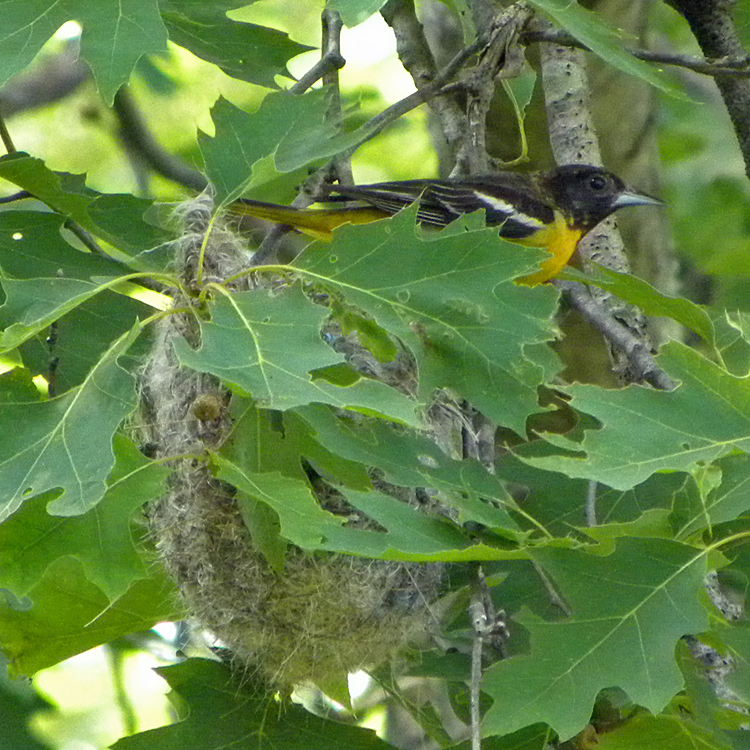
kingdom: Animalia
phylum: Chordata
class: Aves
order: Passeriformes
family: Icteridae
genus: Icterus
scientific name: Icterus galbula
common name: Baltimore oriole
